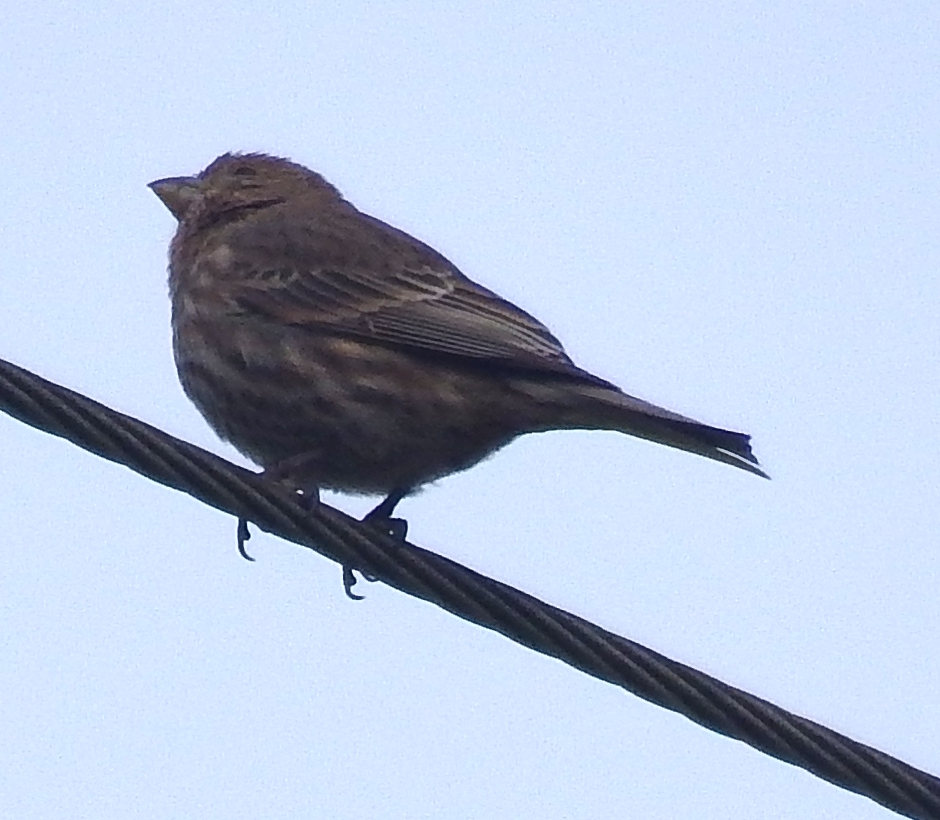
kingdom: Animalia
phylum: Chordata
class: Aves
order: Passeriformes
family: Fringillidae
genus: Haemorhous
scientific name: Haemorhous mexicanus
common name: House finch
